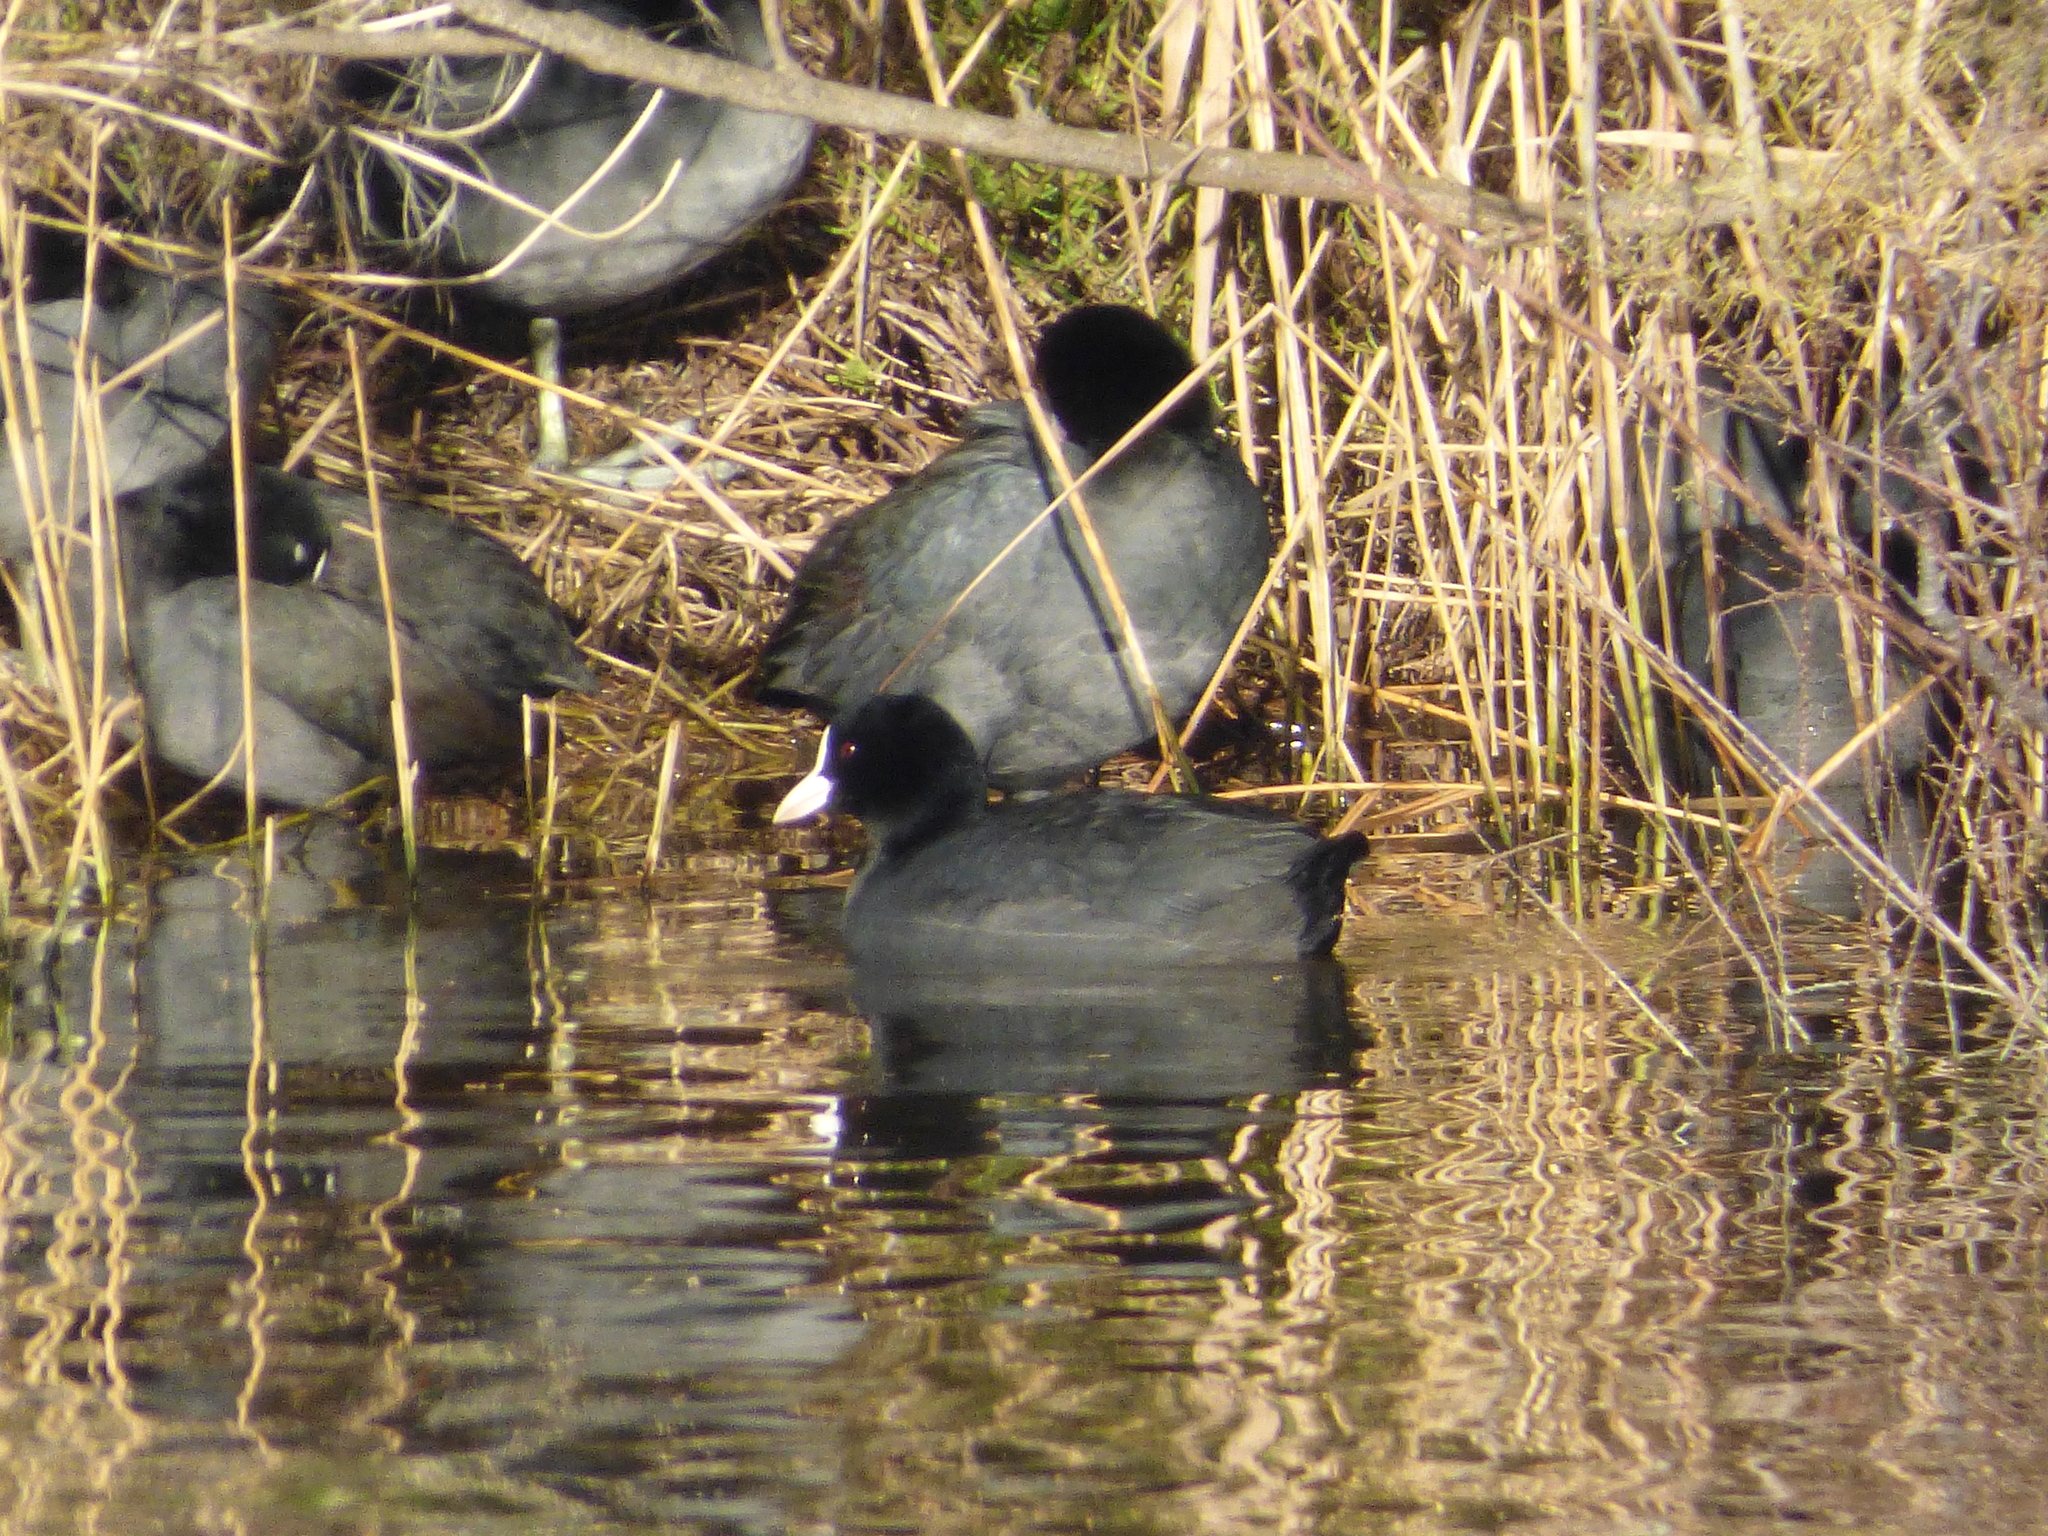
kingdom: Animalia
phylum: Chordata
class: Aves
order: Gruiformes
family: Rallidae
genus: Fulica
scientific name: Fulica atra
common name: Eurasian coot
